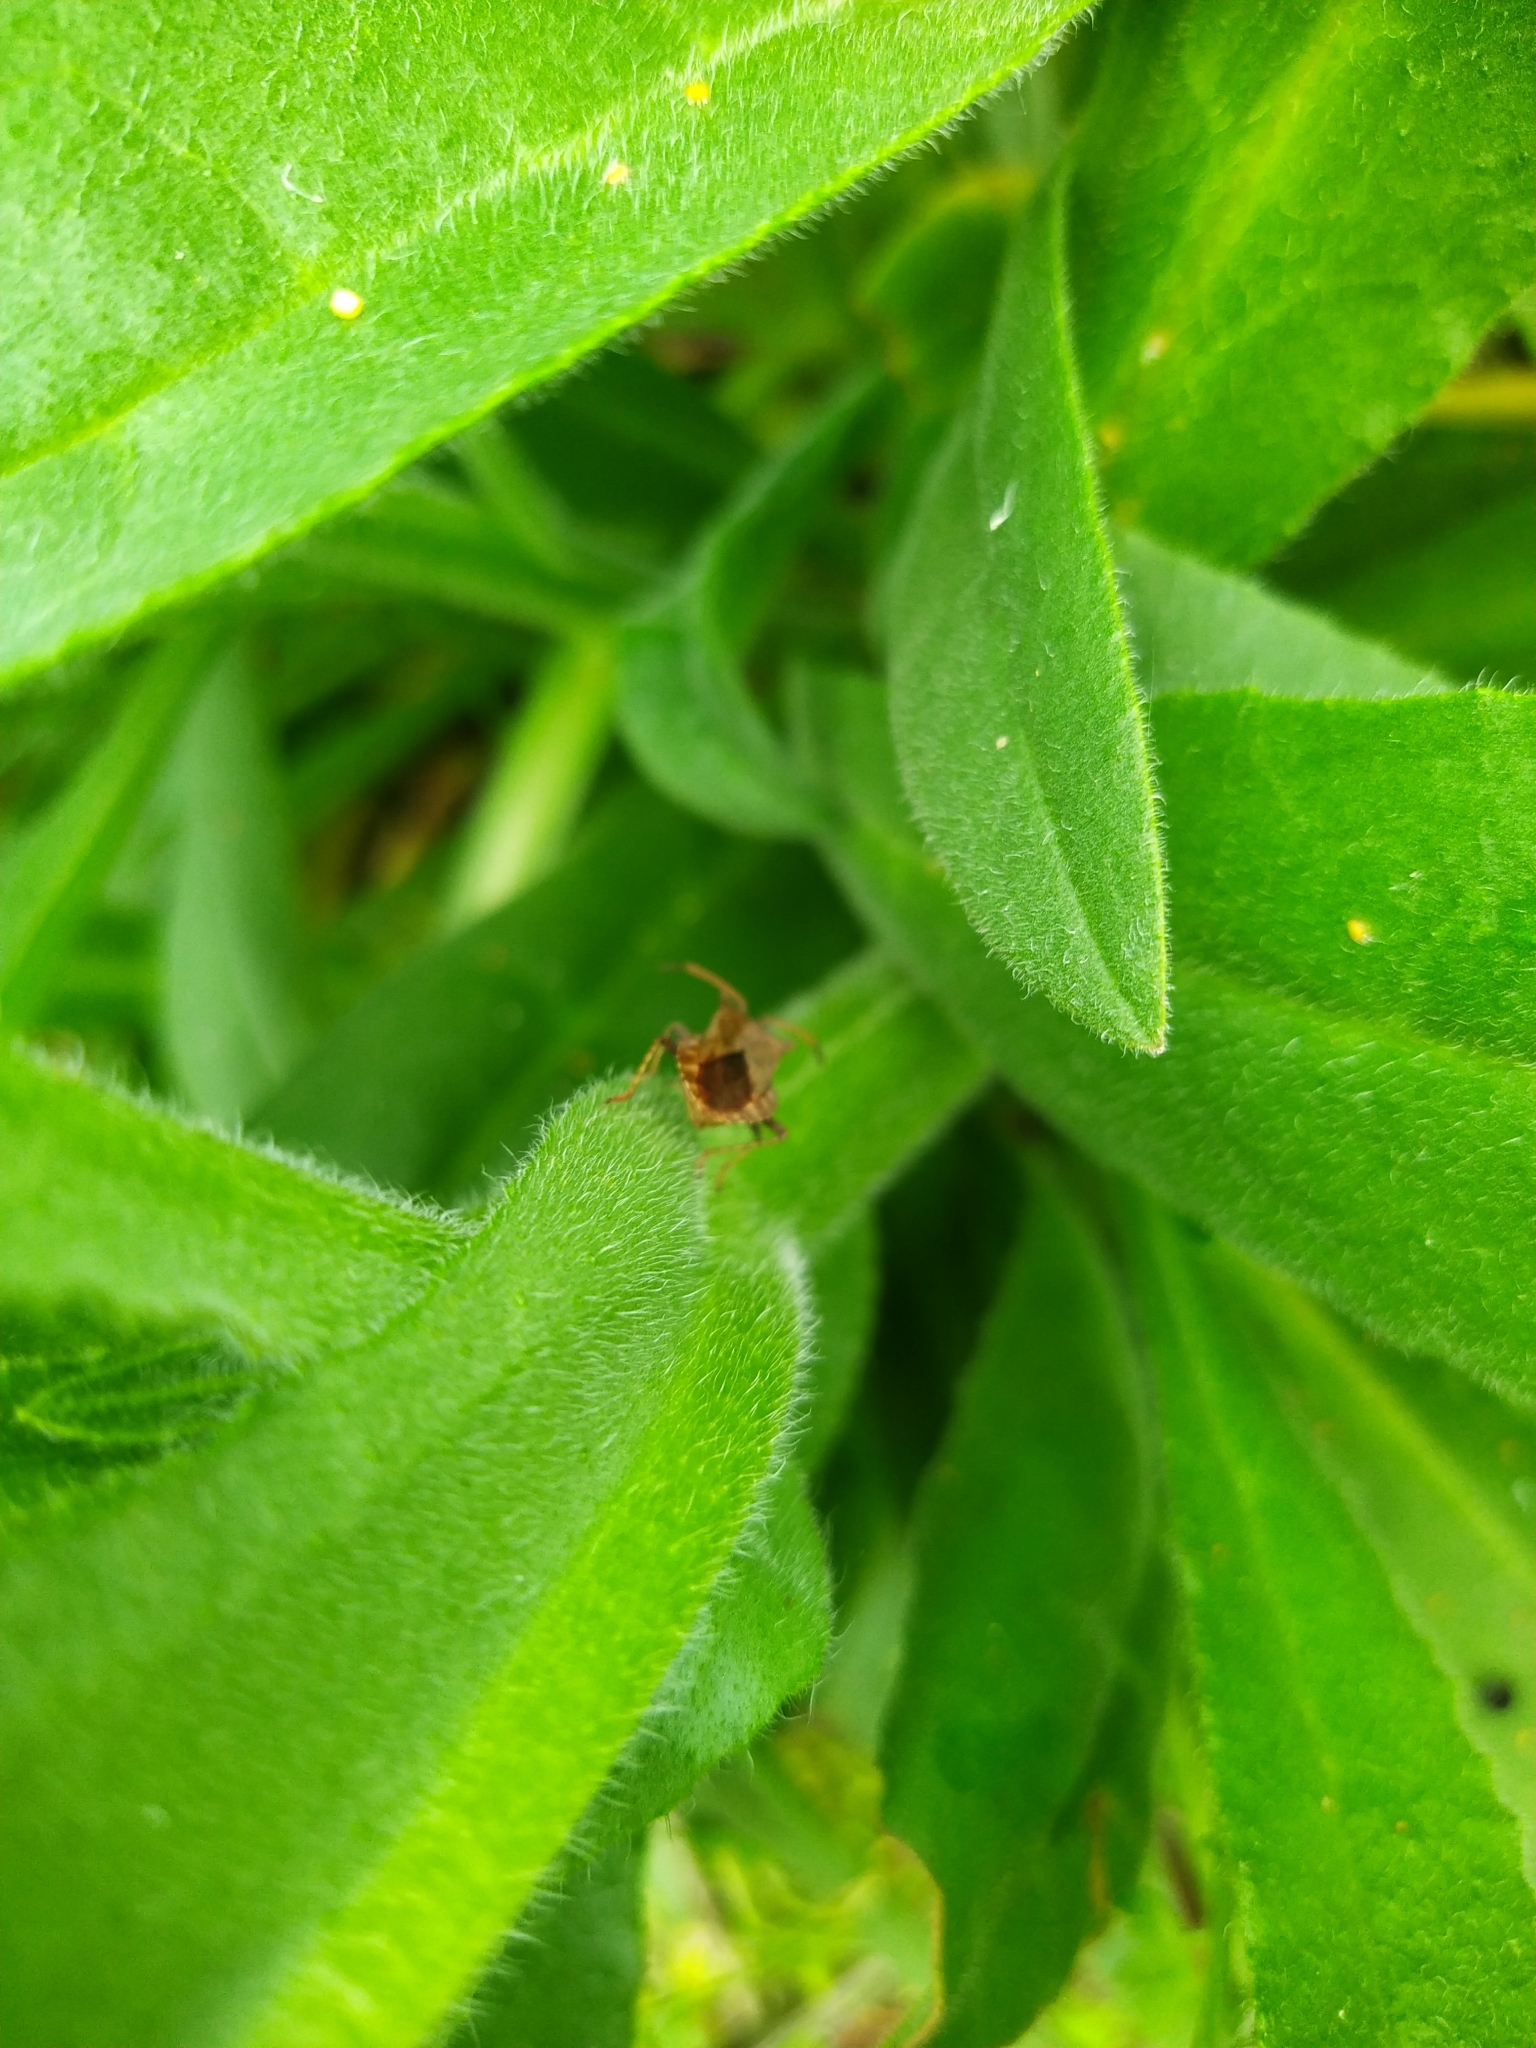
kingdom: Animalia
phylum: Arthropoda
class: Insecta
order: Hemiptera
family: Coreidae
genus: Coreus
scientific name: Coreus marginatus
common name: Dock bug
